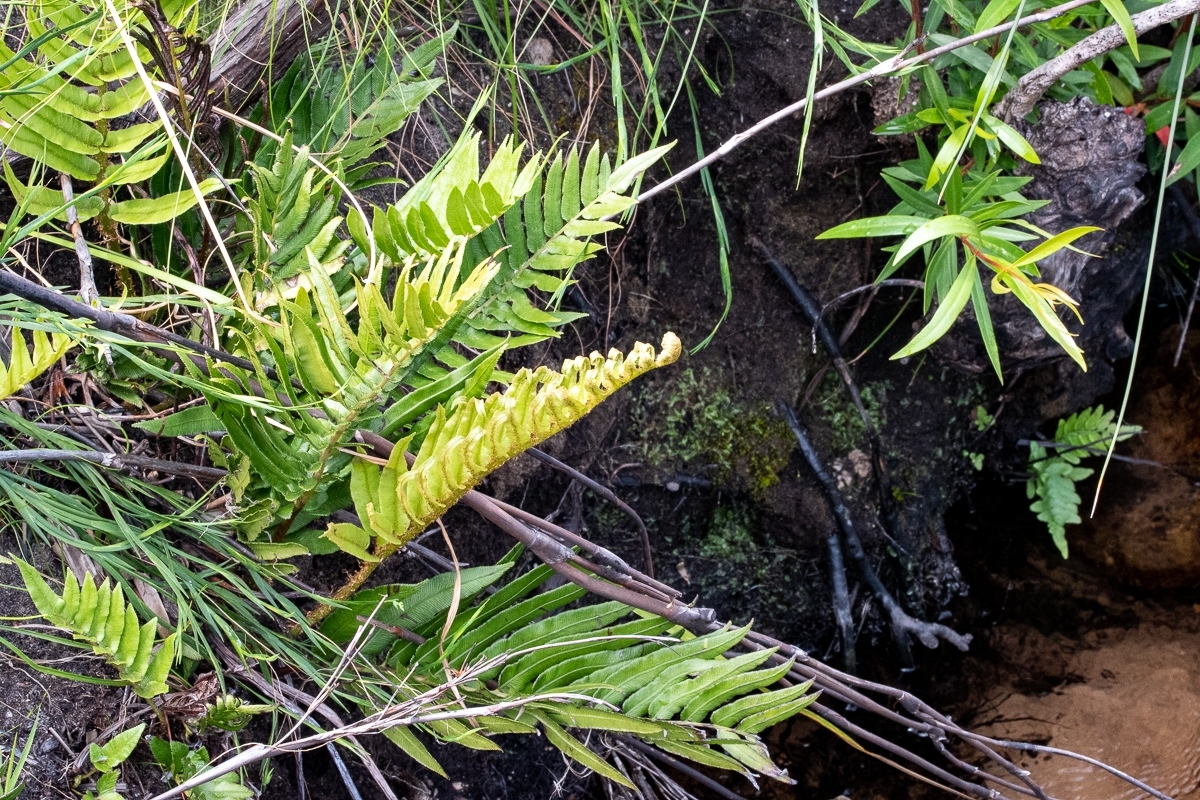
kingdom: Plantae
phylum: Tracheophyta
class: Polypodiopsida
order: Polypodiales
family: Blechnaceae
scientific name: Blechnaceae
